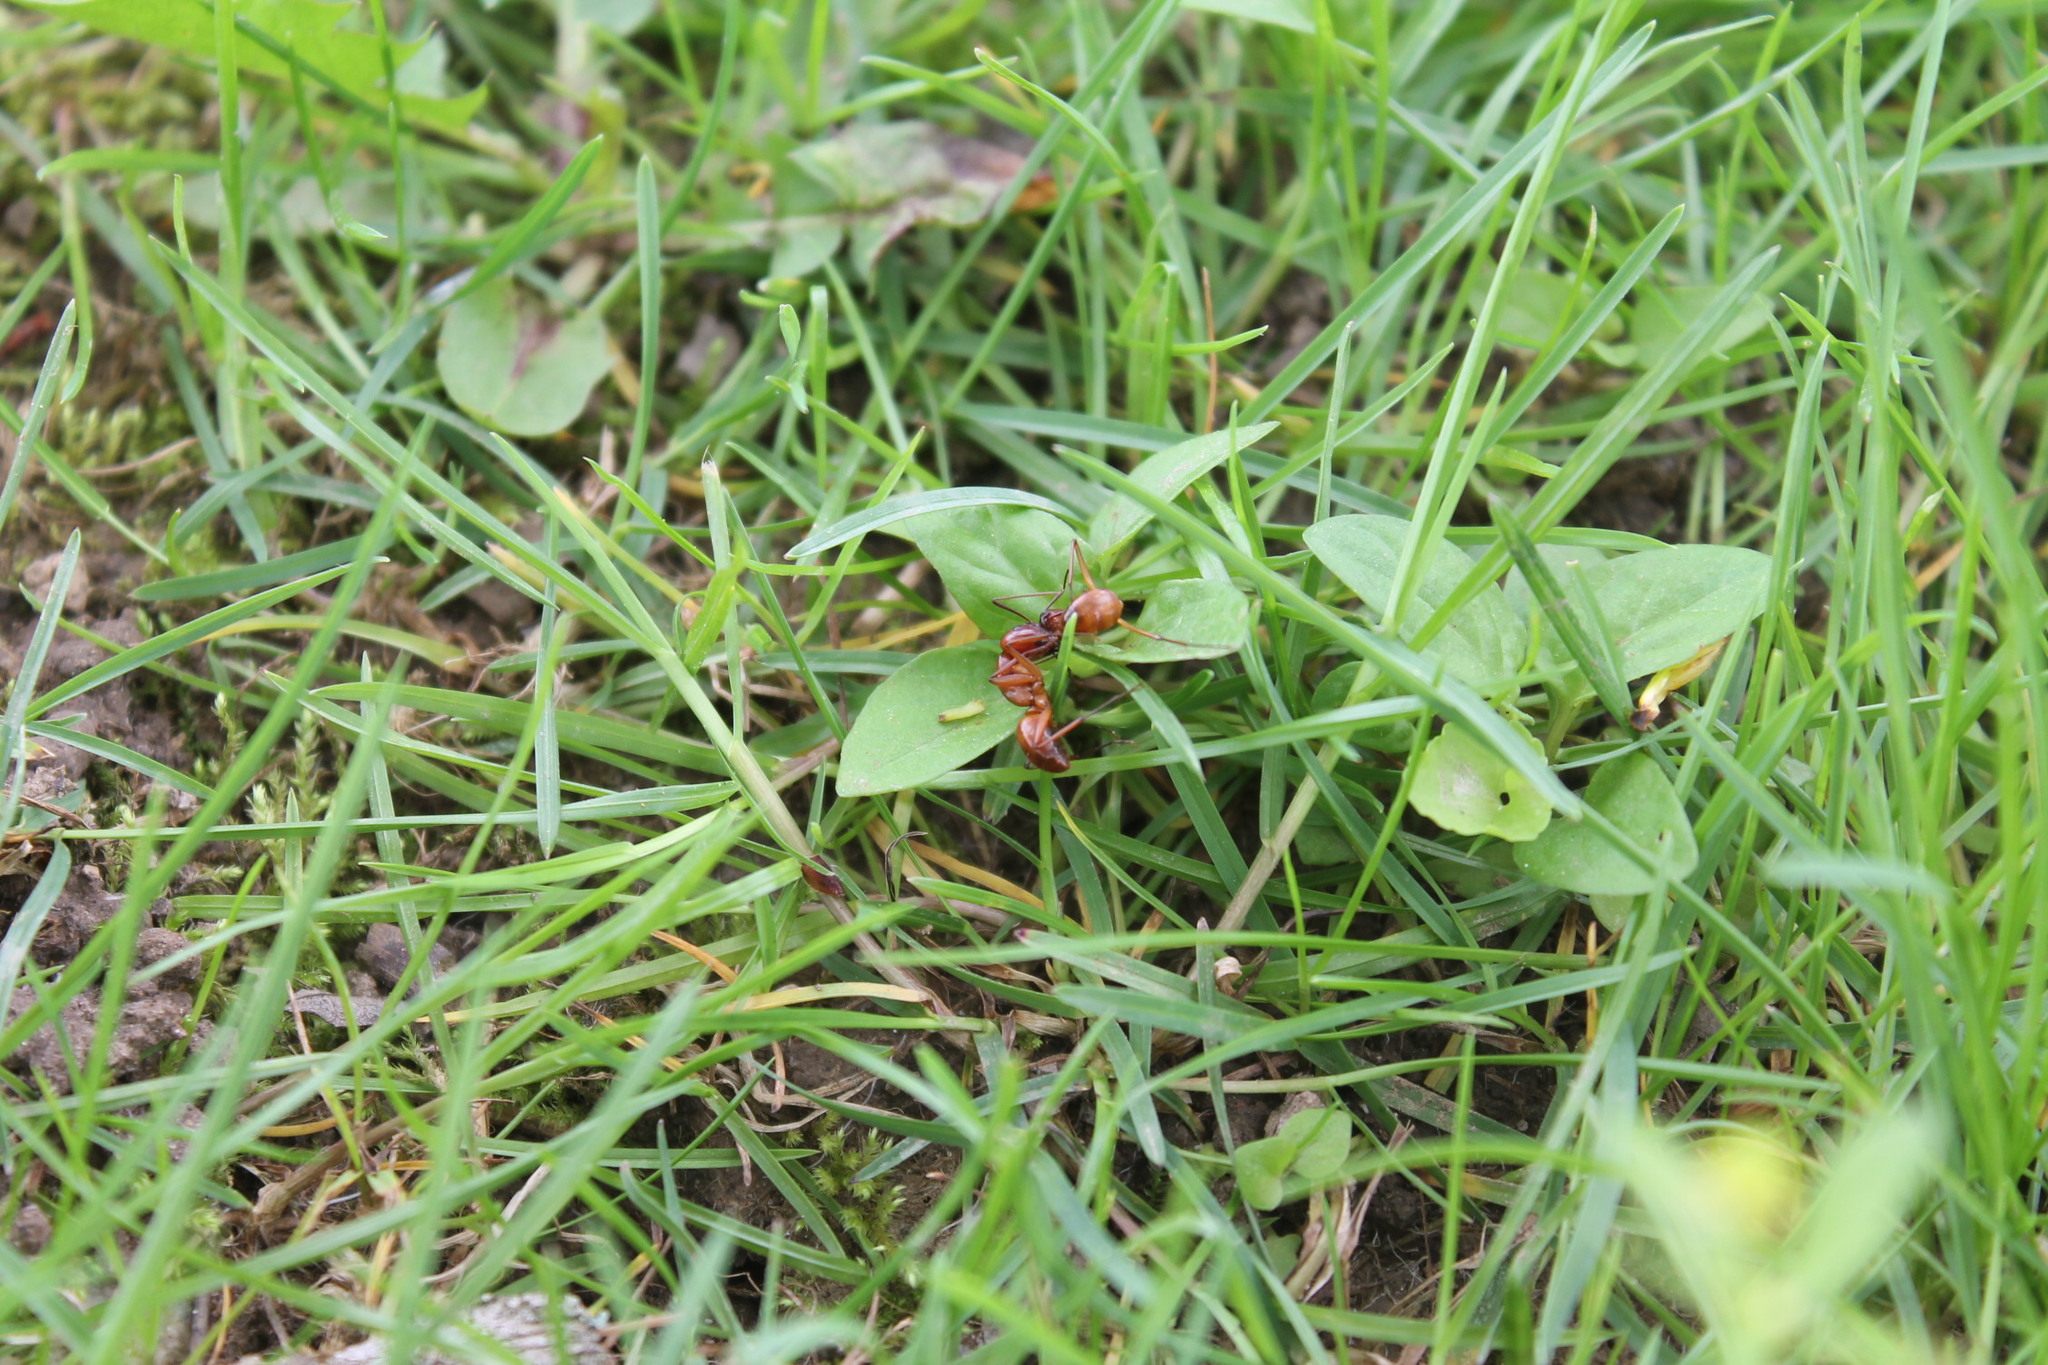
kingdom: Animalia
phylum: Arthropoda
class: Insecta
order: Hymenoptera
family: Formicidae
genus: Camponotus
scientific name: Camponotus castaneus
